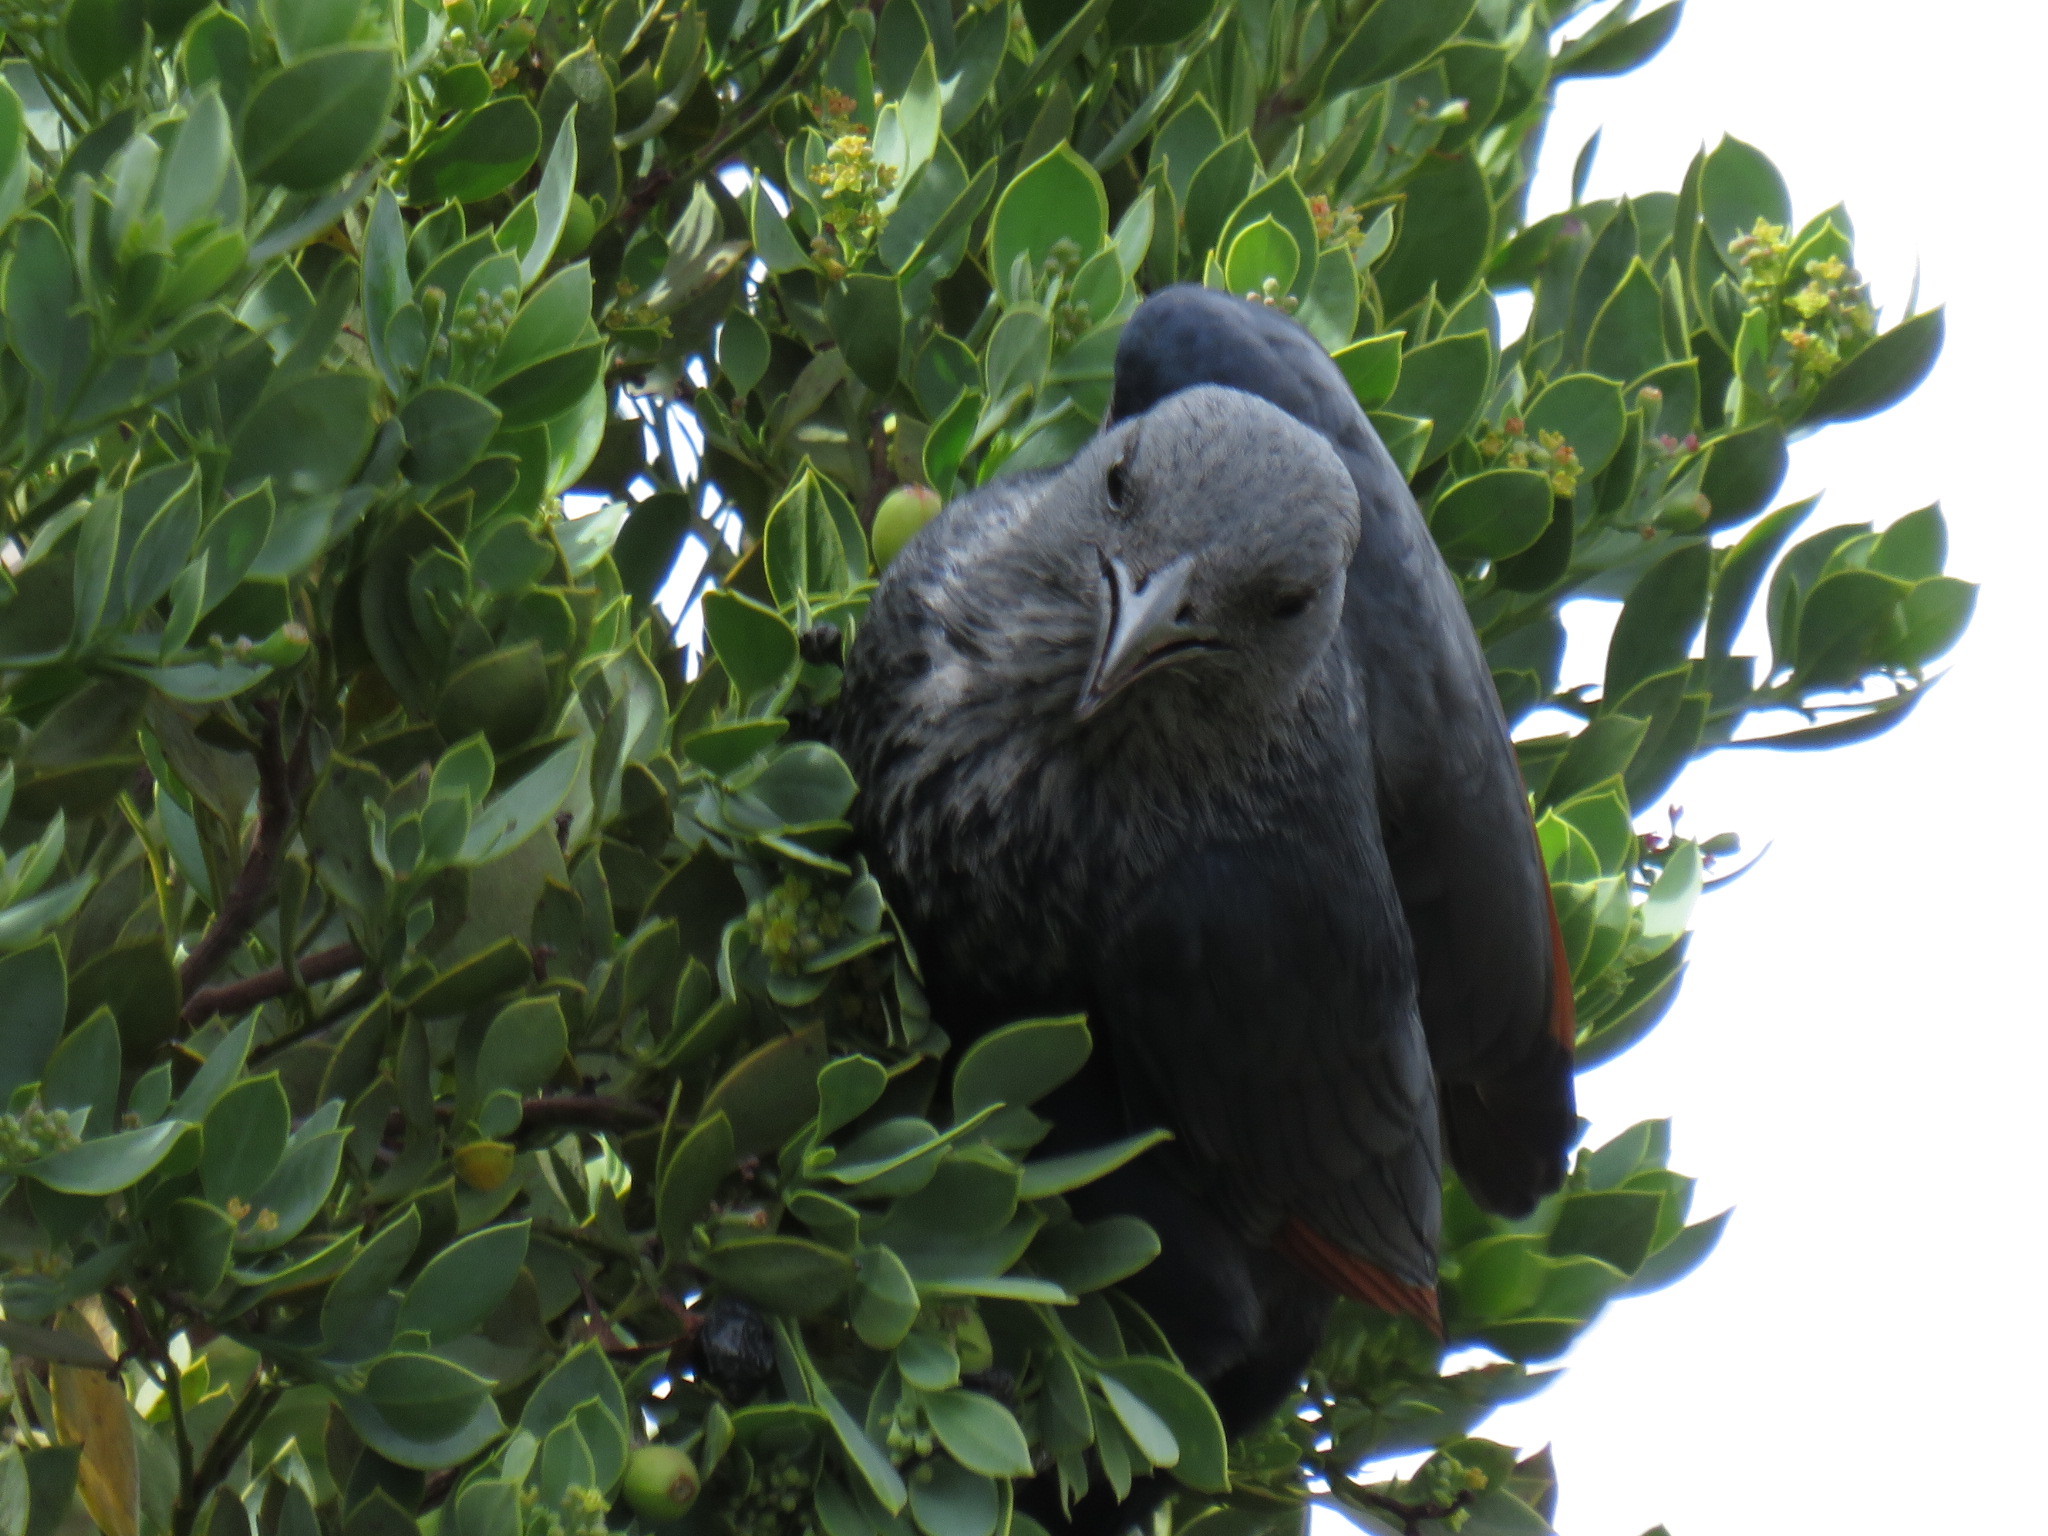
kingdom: Animalia
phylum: Chordata
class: Aves
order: Passeriformes
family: Sturnidae
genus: Onychognathus
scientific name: Onychognathus morio
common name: Red-winged starling
